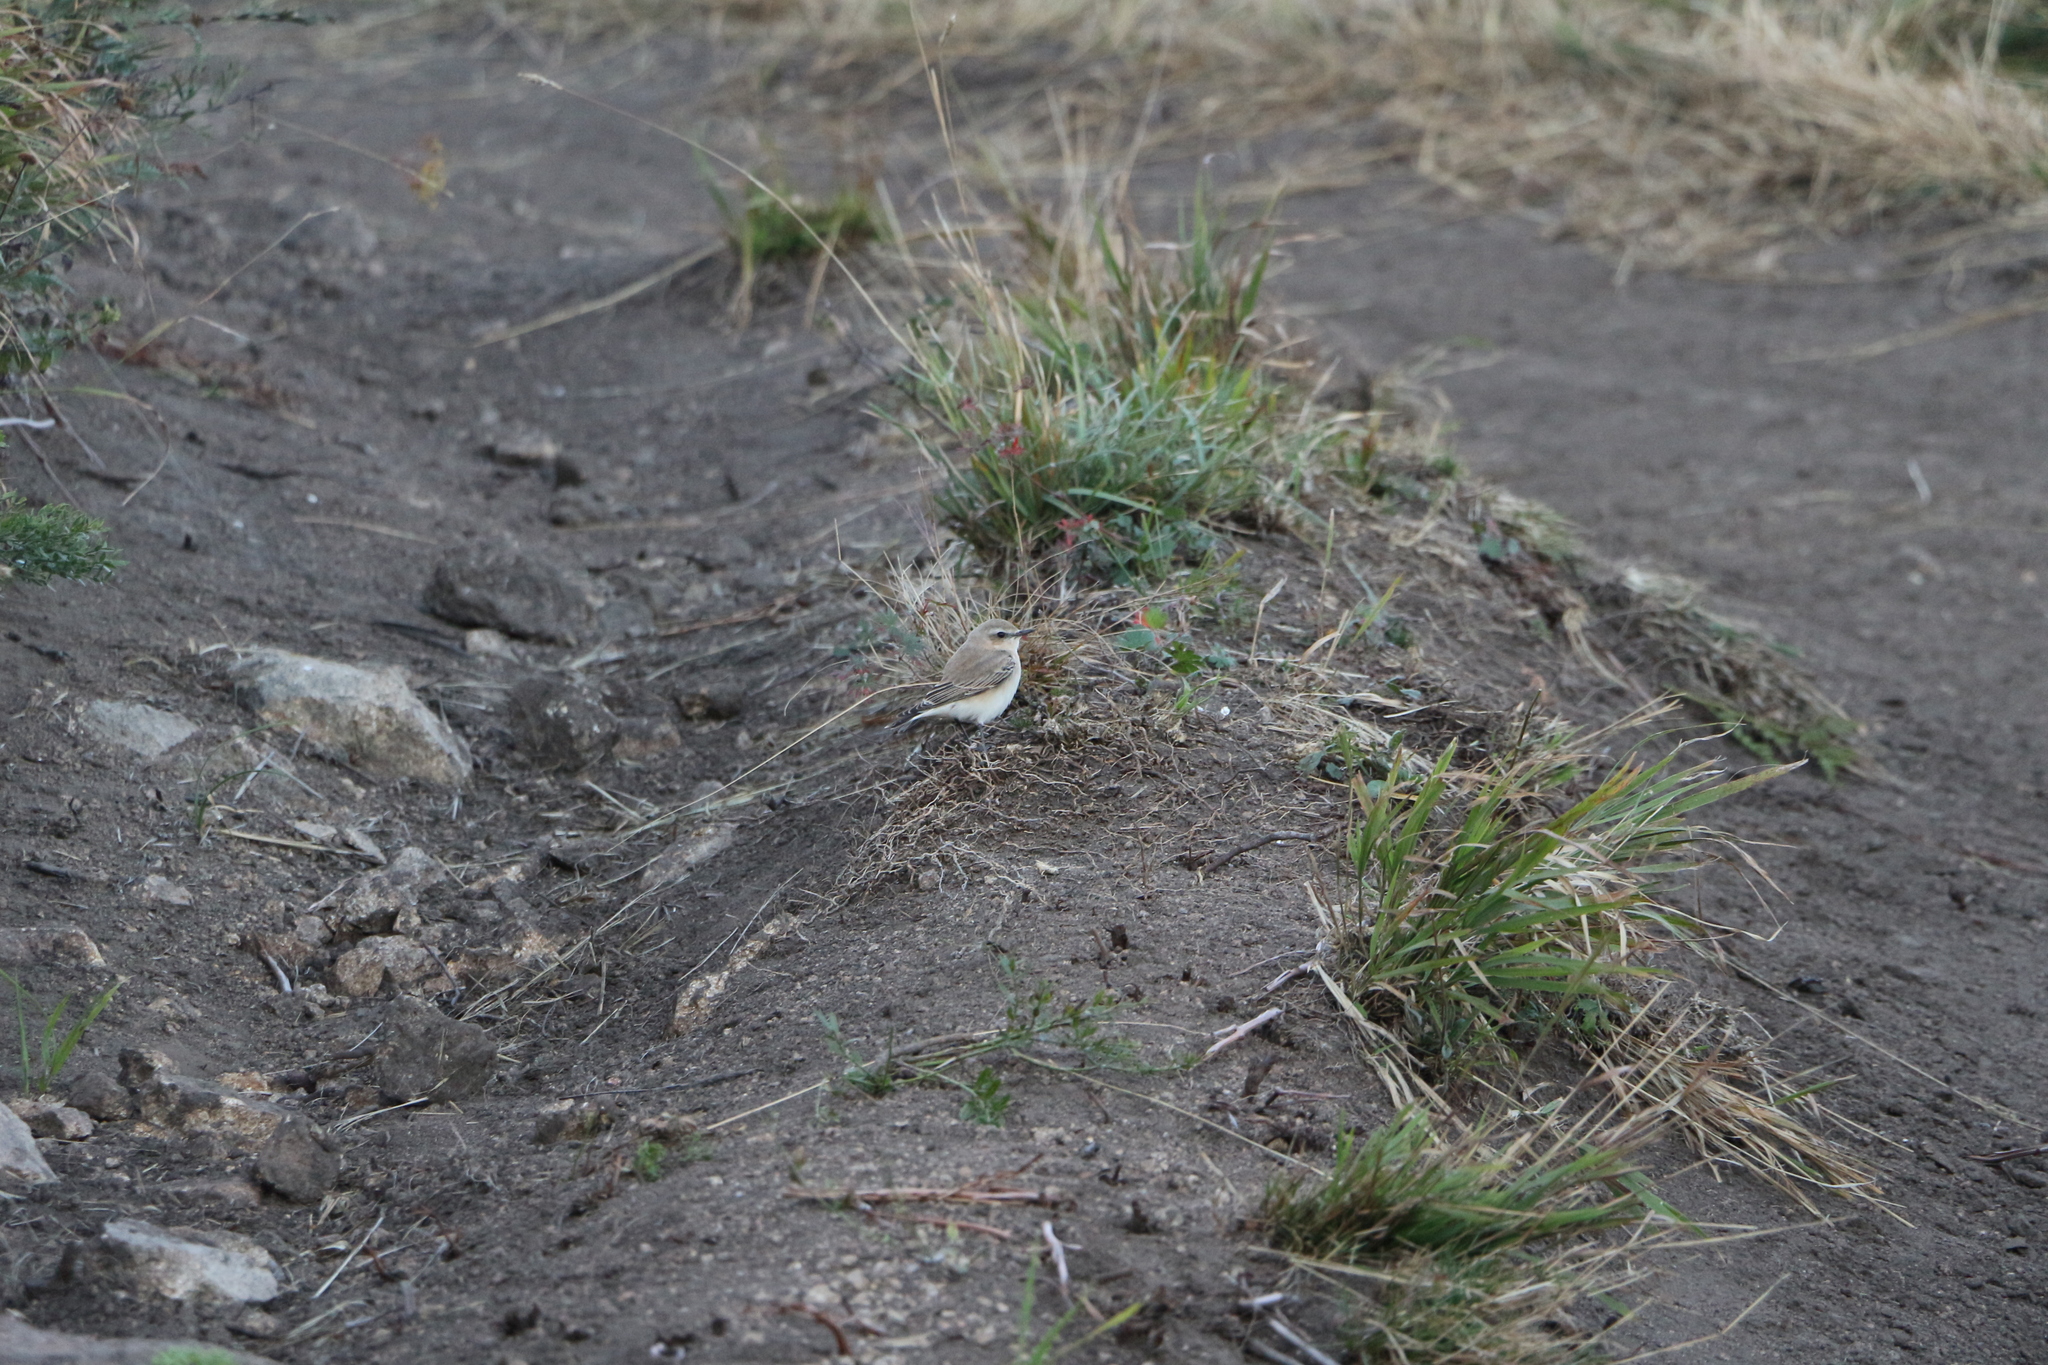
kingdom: Animalia
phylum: Chordata
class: Aves
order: Passeriformes
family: Muscicapidae
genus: Oenanthe
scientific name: Oenanthe oenanthe
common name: Northern wheatear
